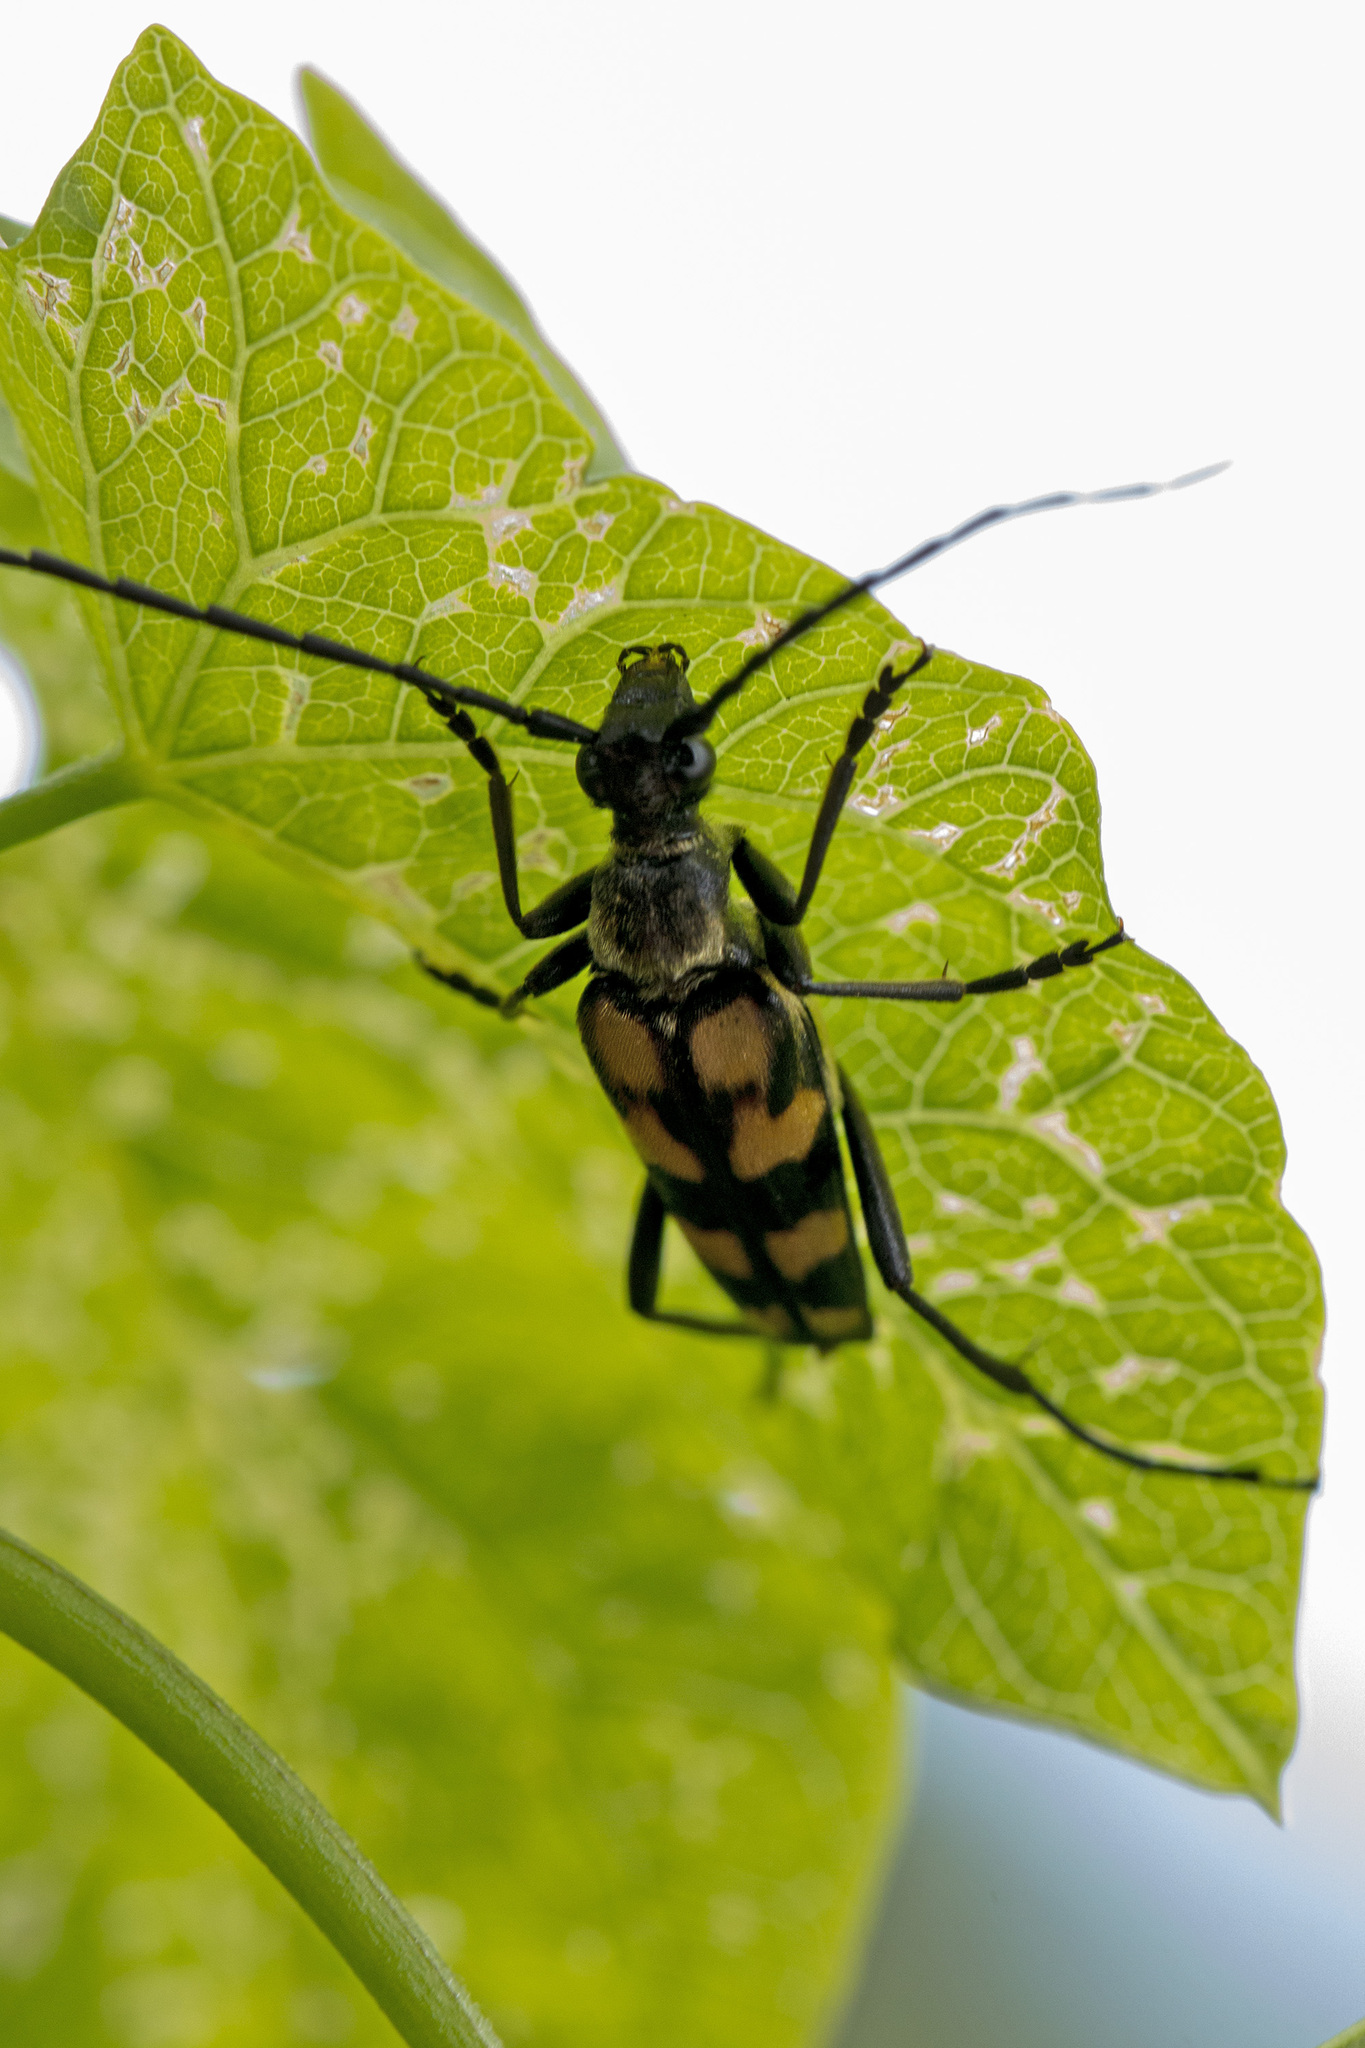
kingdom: Animalia
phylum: Arthropoda
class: Insecta
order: Coleoptera
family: Cerambycidae
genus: Leptura
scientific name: Leptura quadrifasciata
